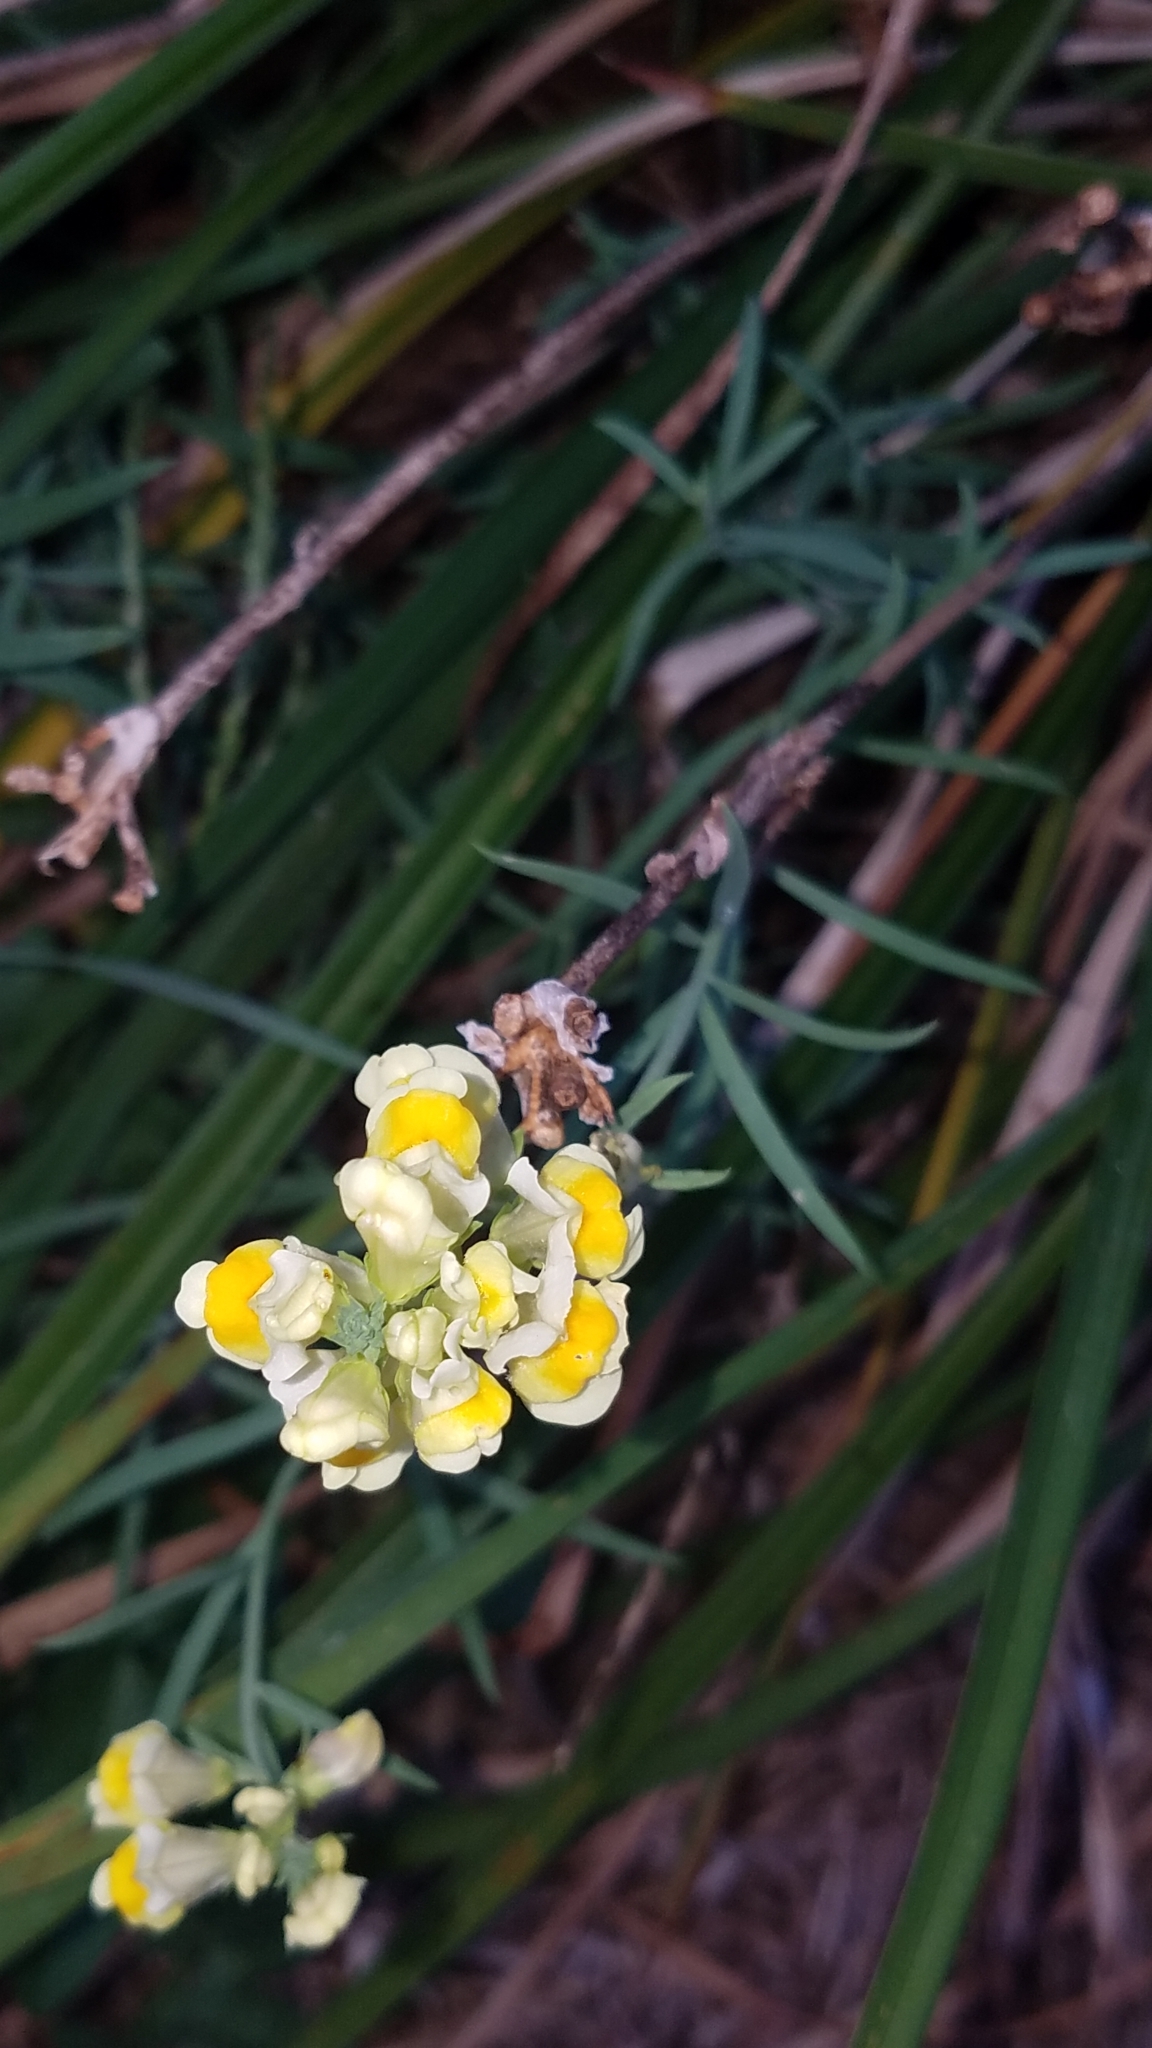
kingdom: Plantae
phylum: Tracheophyta
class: Magnoliopsida
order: Lamiales
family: Plantaginaceae
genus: Linaria
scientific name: Linaria vulgaris
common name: Butter and eggs
